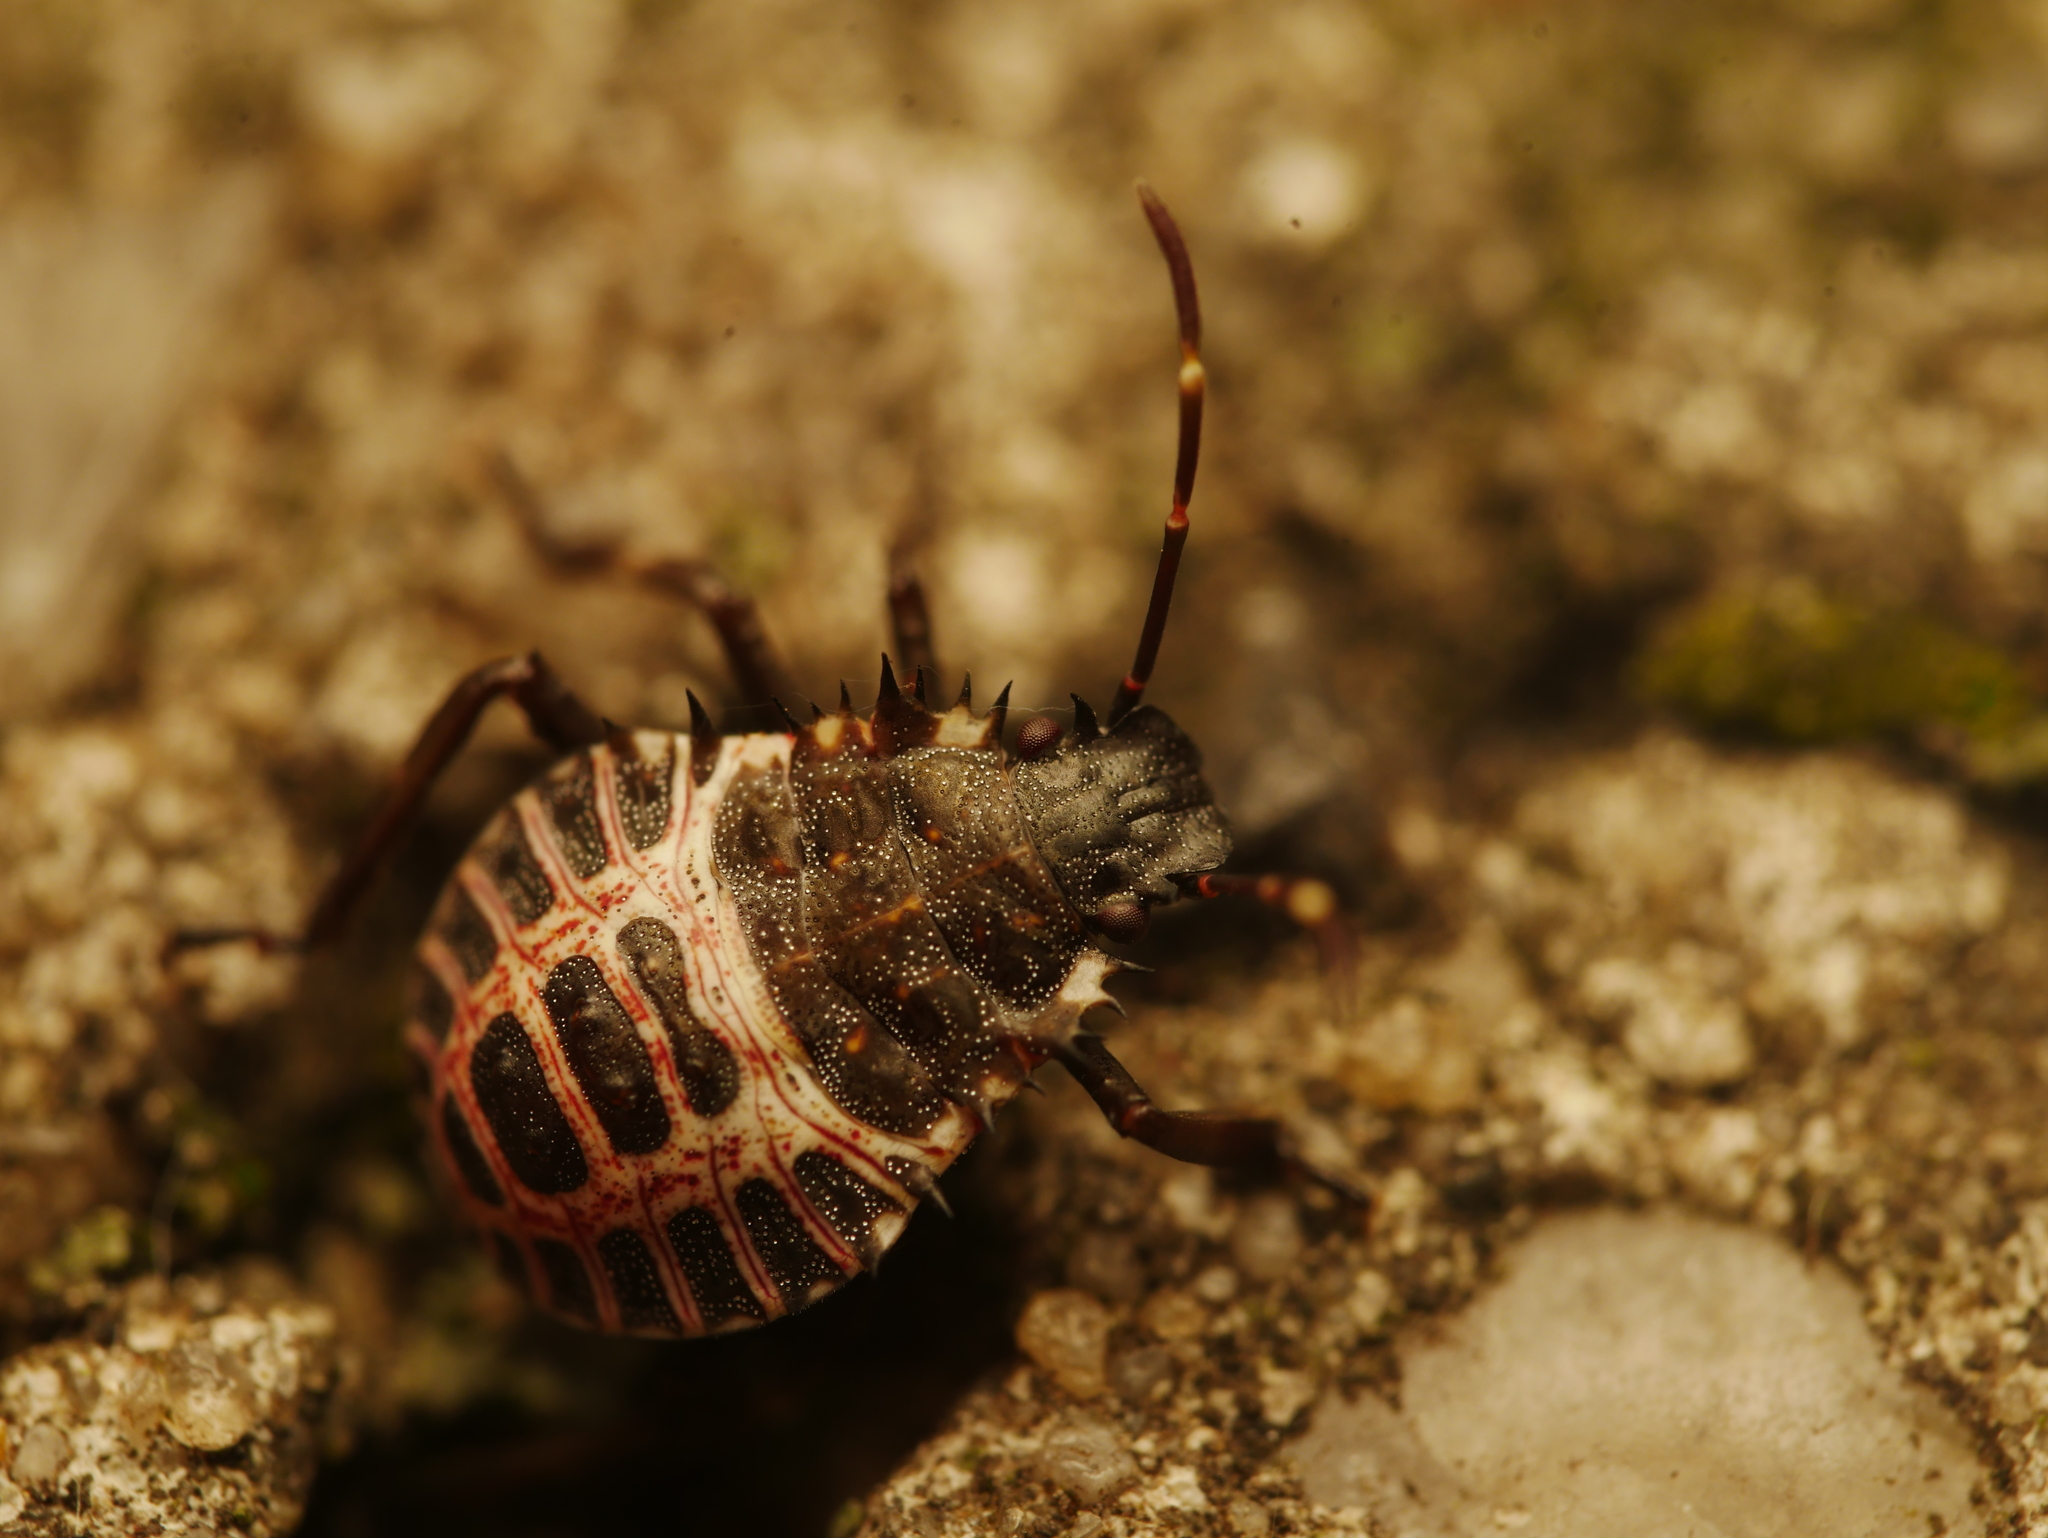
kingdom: Animalia
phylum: Arthropoda
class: Insecta
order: Hemiptera
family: Pentatomidae
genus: Halyomorpha
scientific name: Halyomorpha halys
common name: Brown marmorated stink bug
